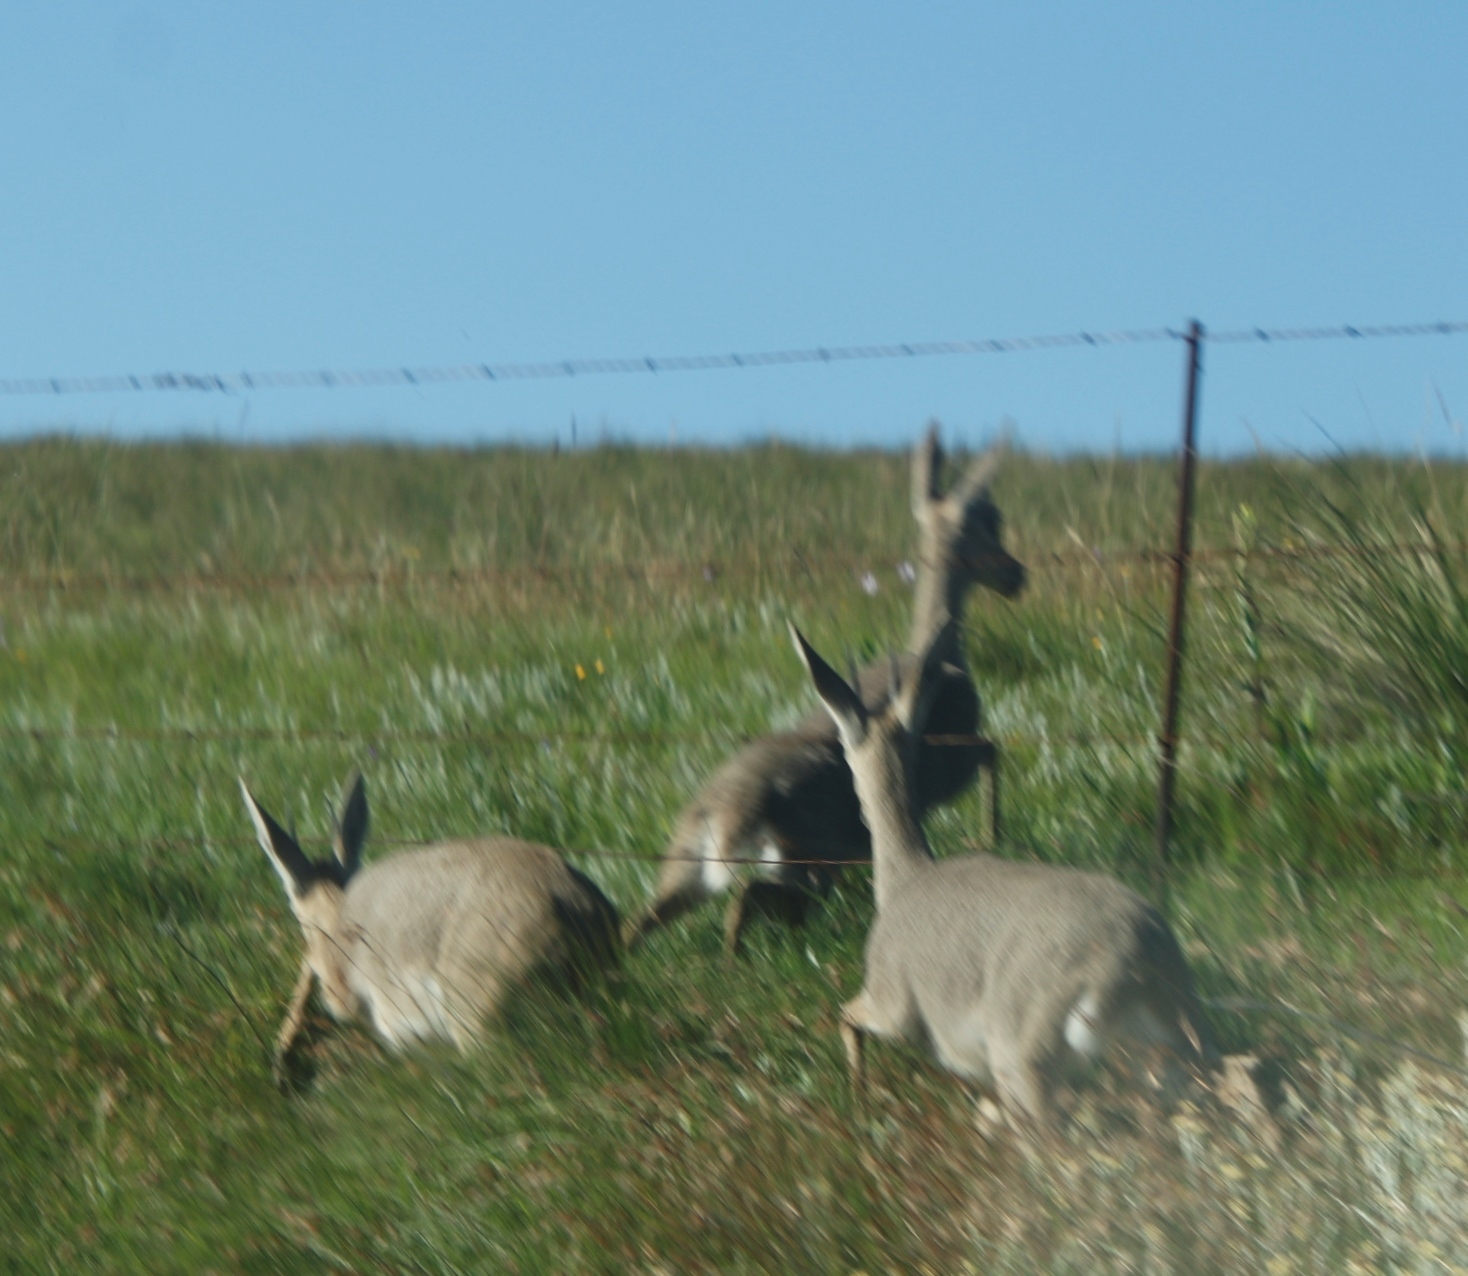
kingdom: Animalia
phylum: Chordata
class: Mammalia
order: Artiodactyla
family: Bovidae
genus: Pelea
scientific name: Pelea capreolus
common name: Common rhebok
